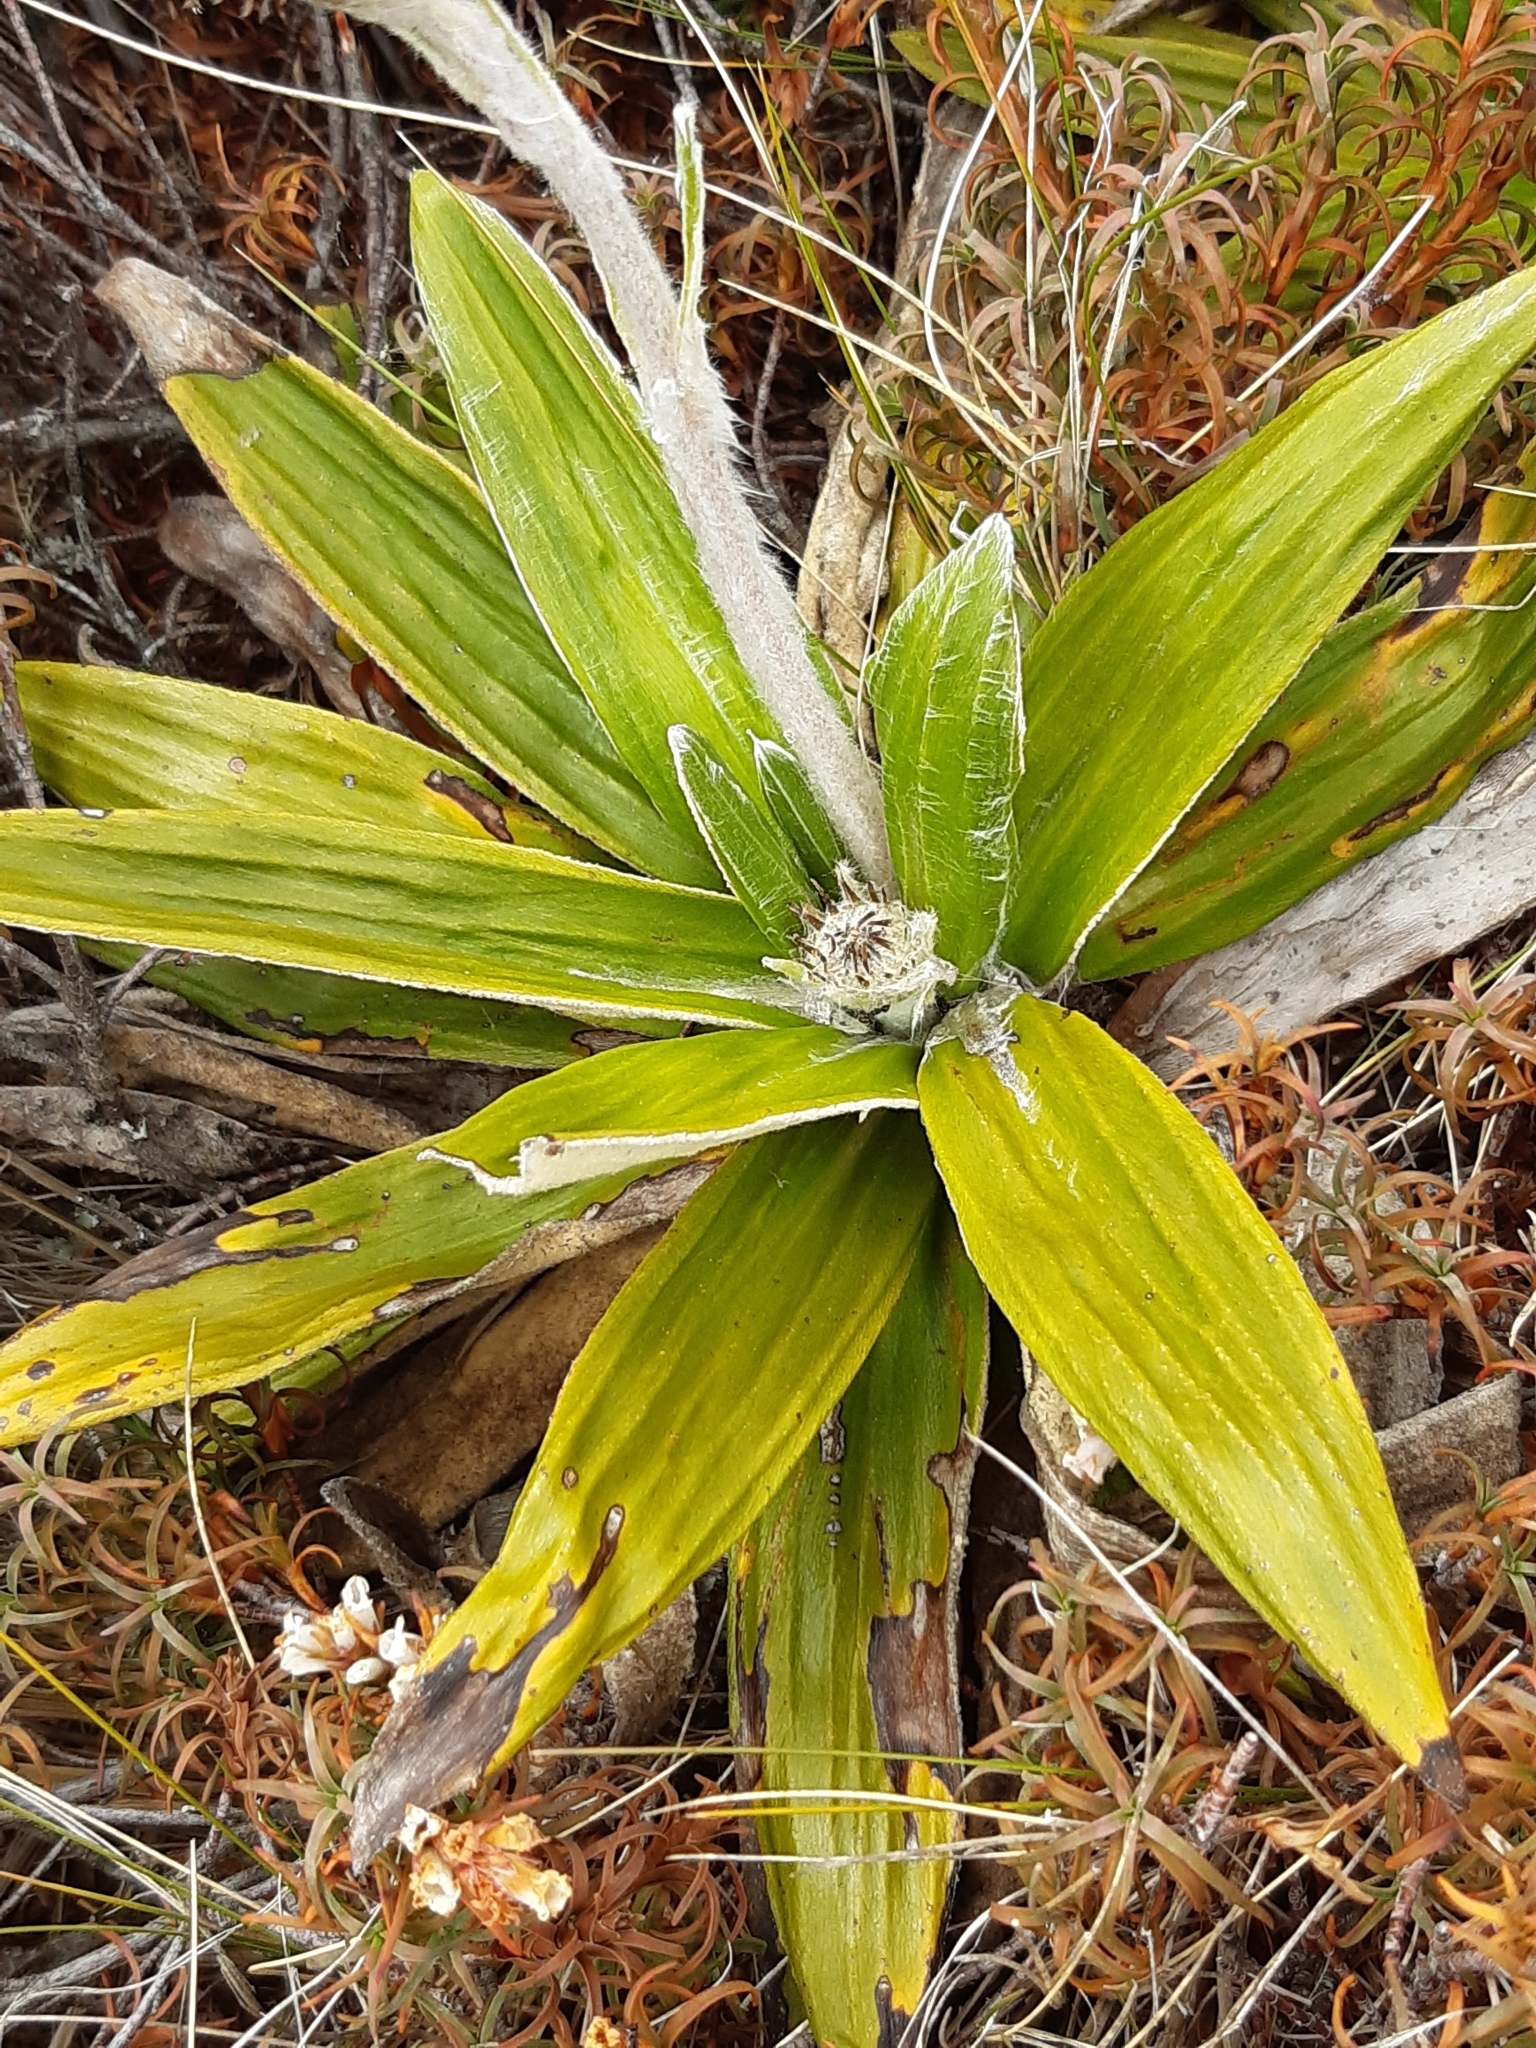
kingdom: Plantae
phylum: Tracheophyta
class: Magnoliopsida
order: Asterales
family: Asteraceae
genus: Celmisia
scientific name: Celmisia spectabilis
